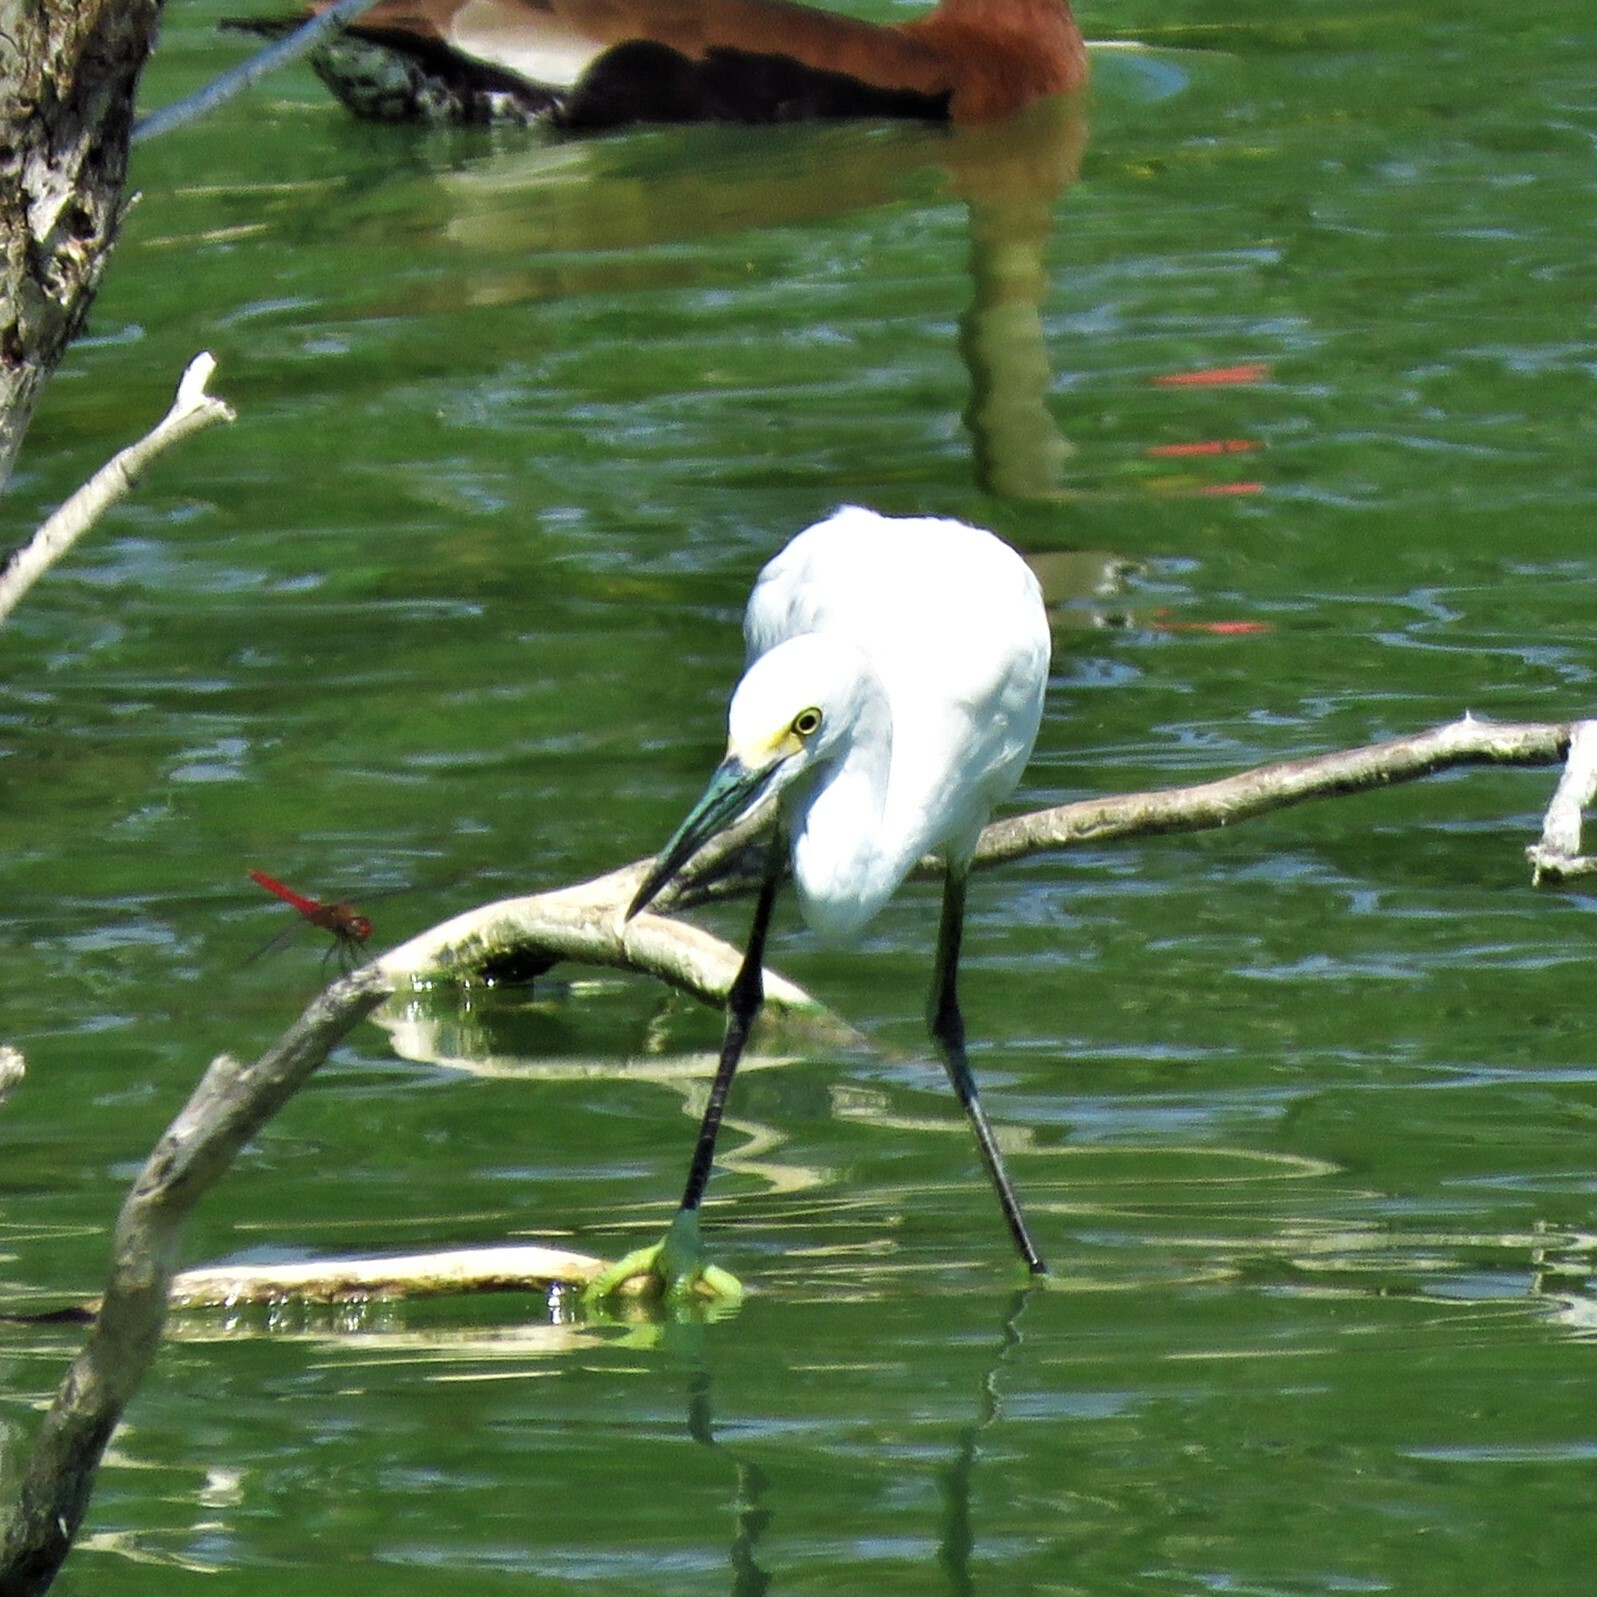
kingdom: Animalia
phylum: Chordata
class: Aves
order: Pelecaniformes
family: Ardeidae
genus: Egretta
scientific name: Egretta thula
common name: Snowy egret
